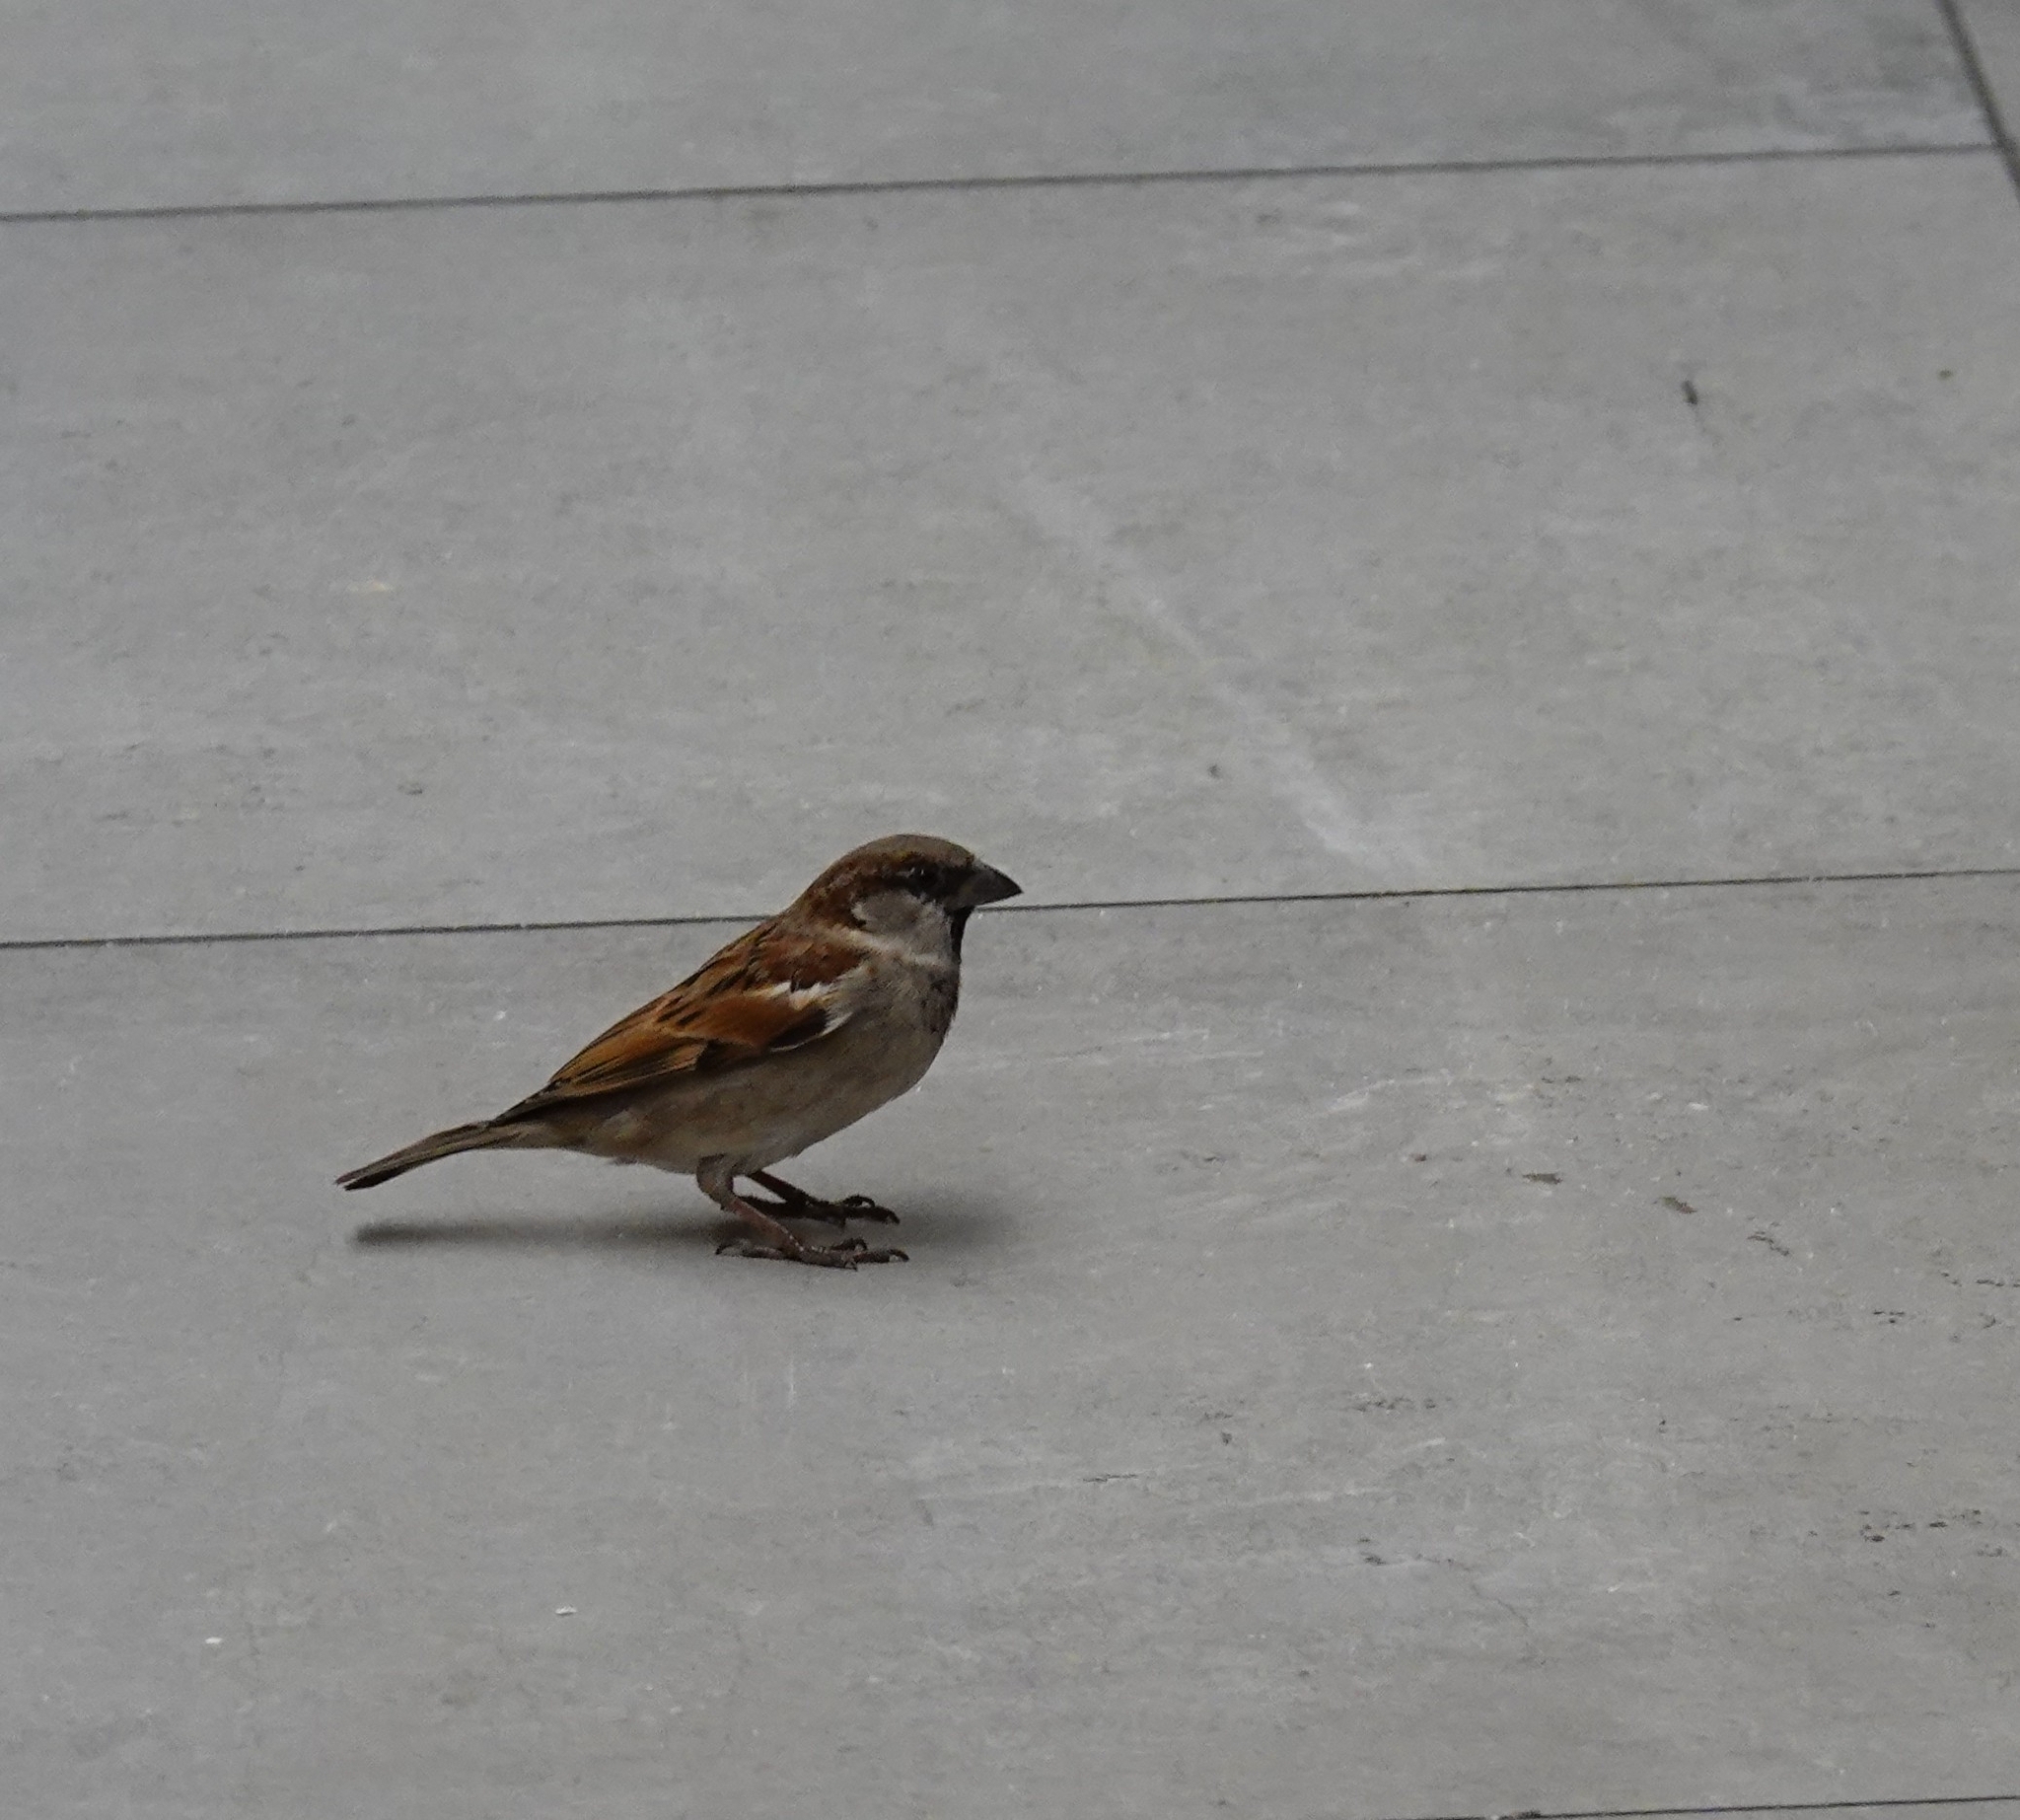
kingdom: Animalia
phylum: Chordata
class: Aves
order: Passeriformes
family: Passeridae
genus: Passer
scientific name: Passer domesticus
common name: House sparrow
